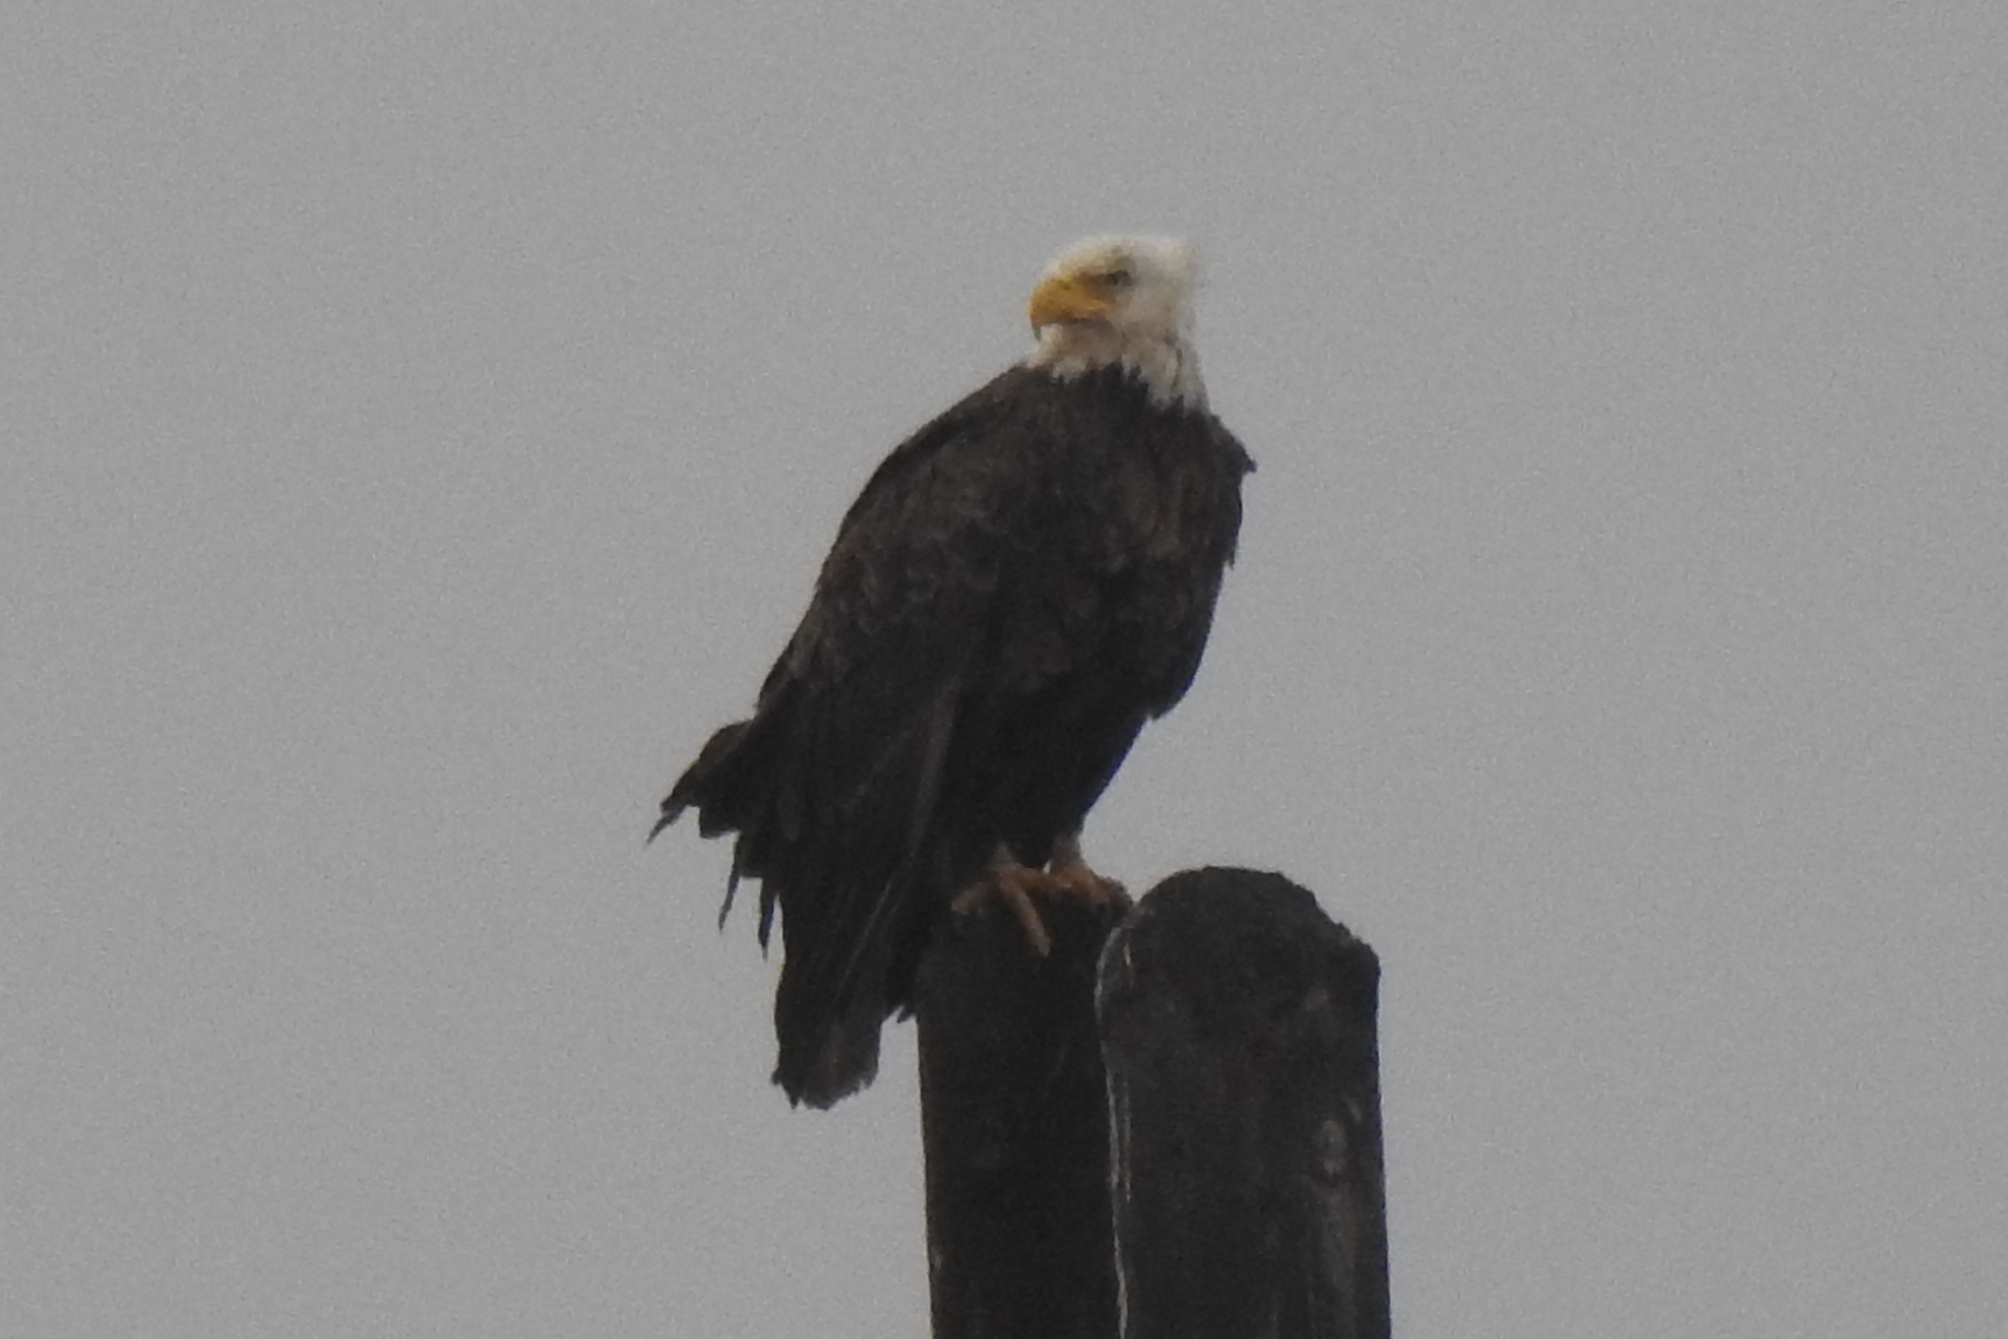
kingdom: Animalia
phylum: Chordata
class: Aves
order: Accipitriformes
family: Accipitridae
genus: Haliaeetus
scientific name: Haliaeetus leucocephalus
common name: Bald eagle
